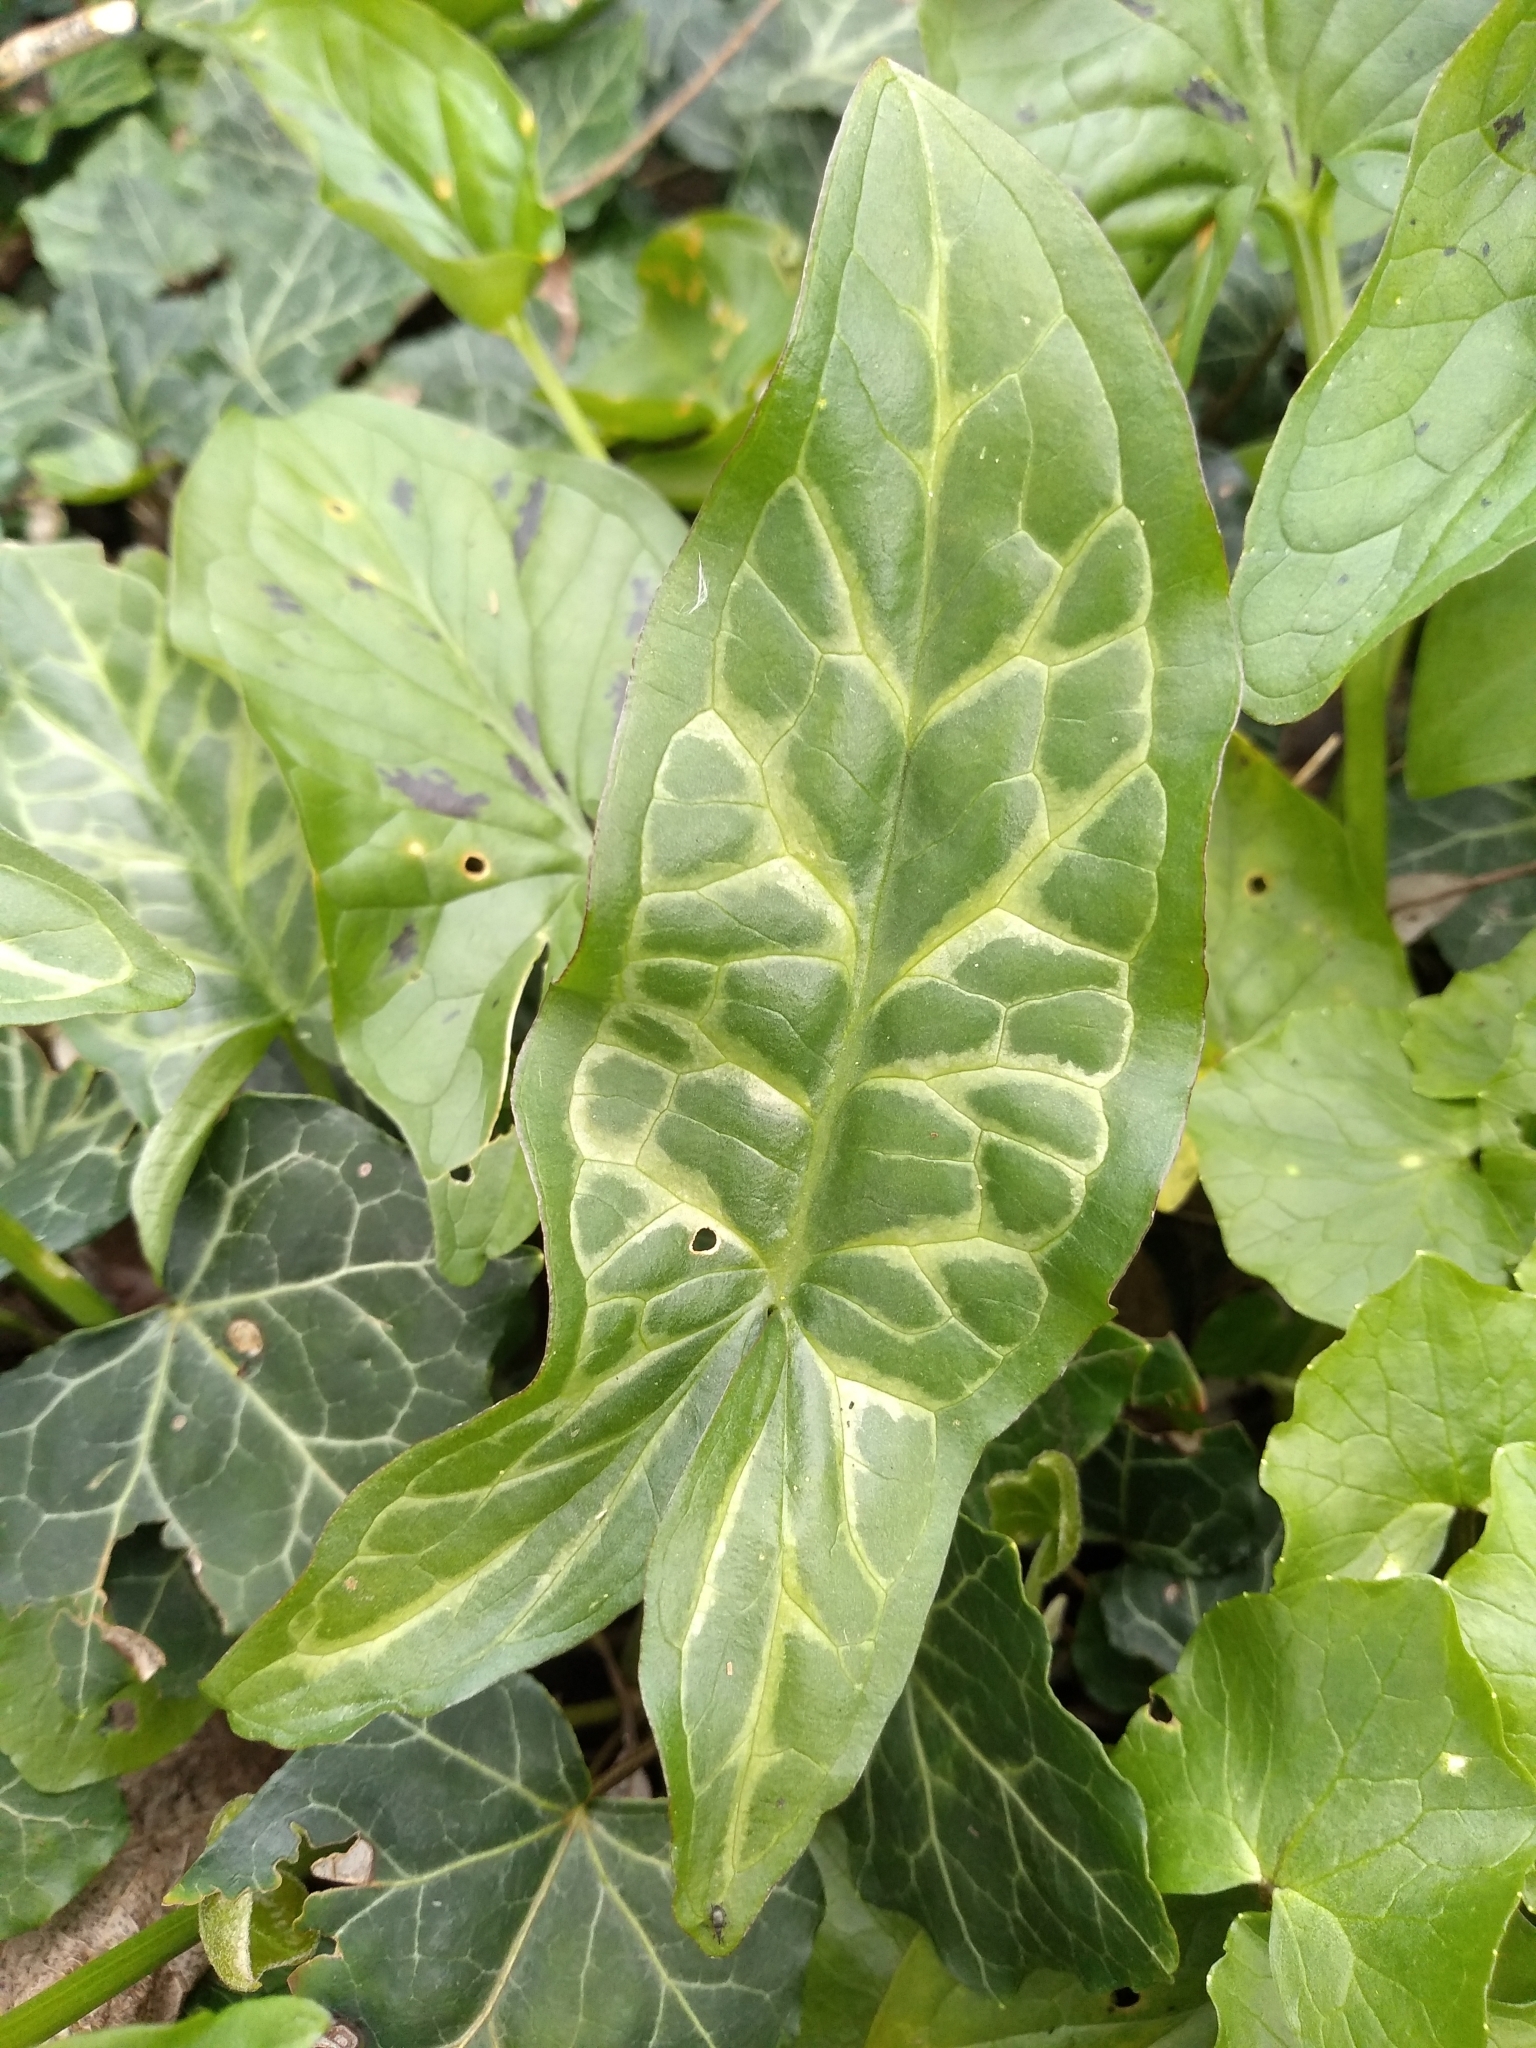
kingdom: Plantae
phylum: Tracheophyta
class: Liliopsida
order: Alismatales
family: Araceae
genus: Arum
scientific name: Arum italicum
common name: Italian lords-and-ladies
